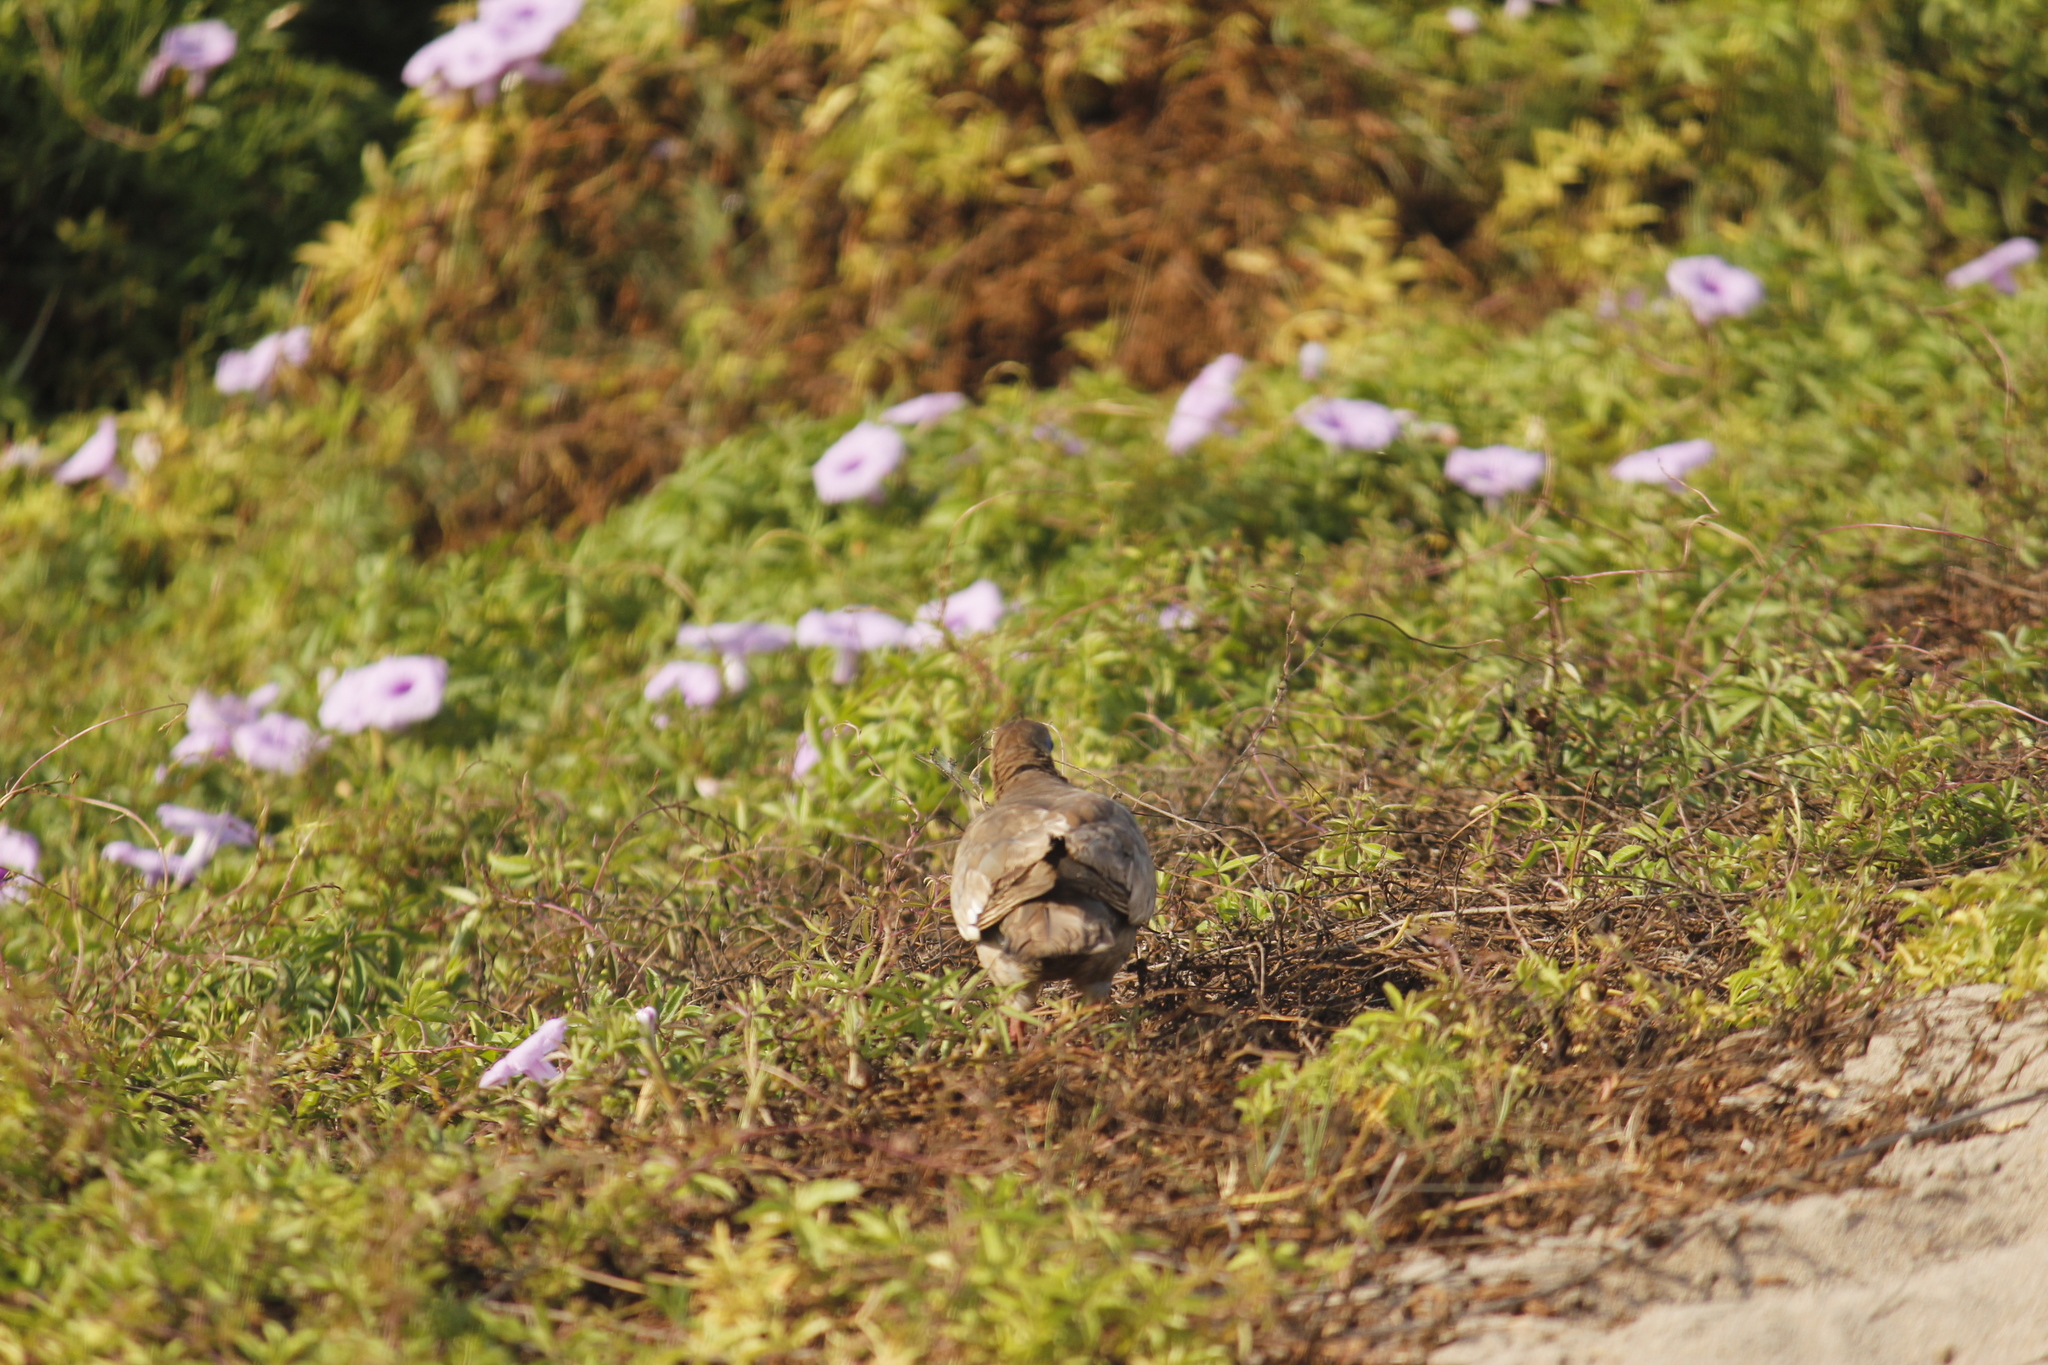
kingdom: Animalia
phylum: Chordata
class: Aves
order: Columbiformes
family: Columbidae
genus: Zenaida
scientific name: Zenaida meloda
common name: West peruvian dove
